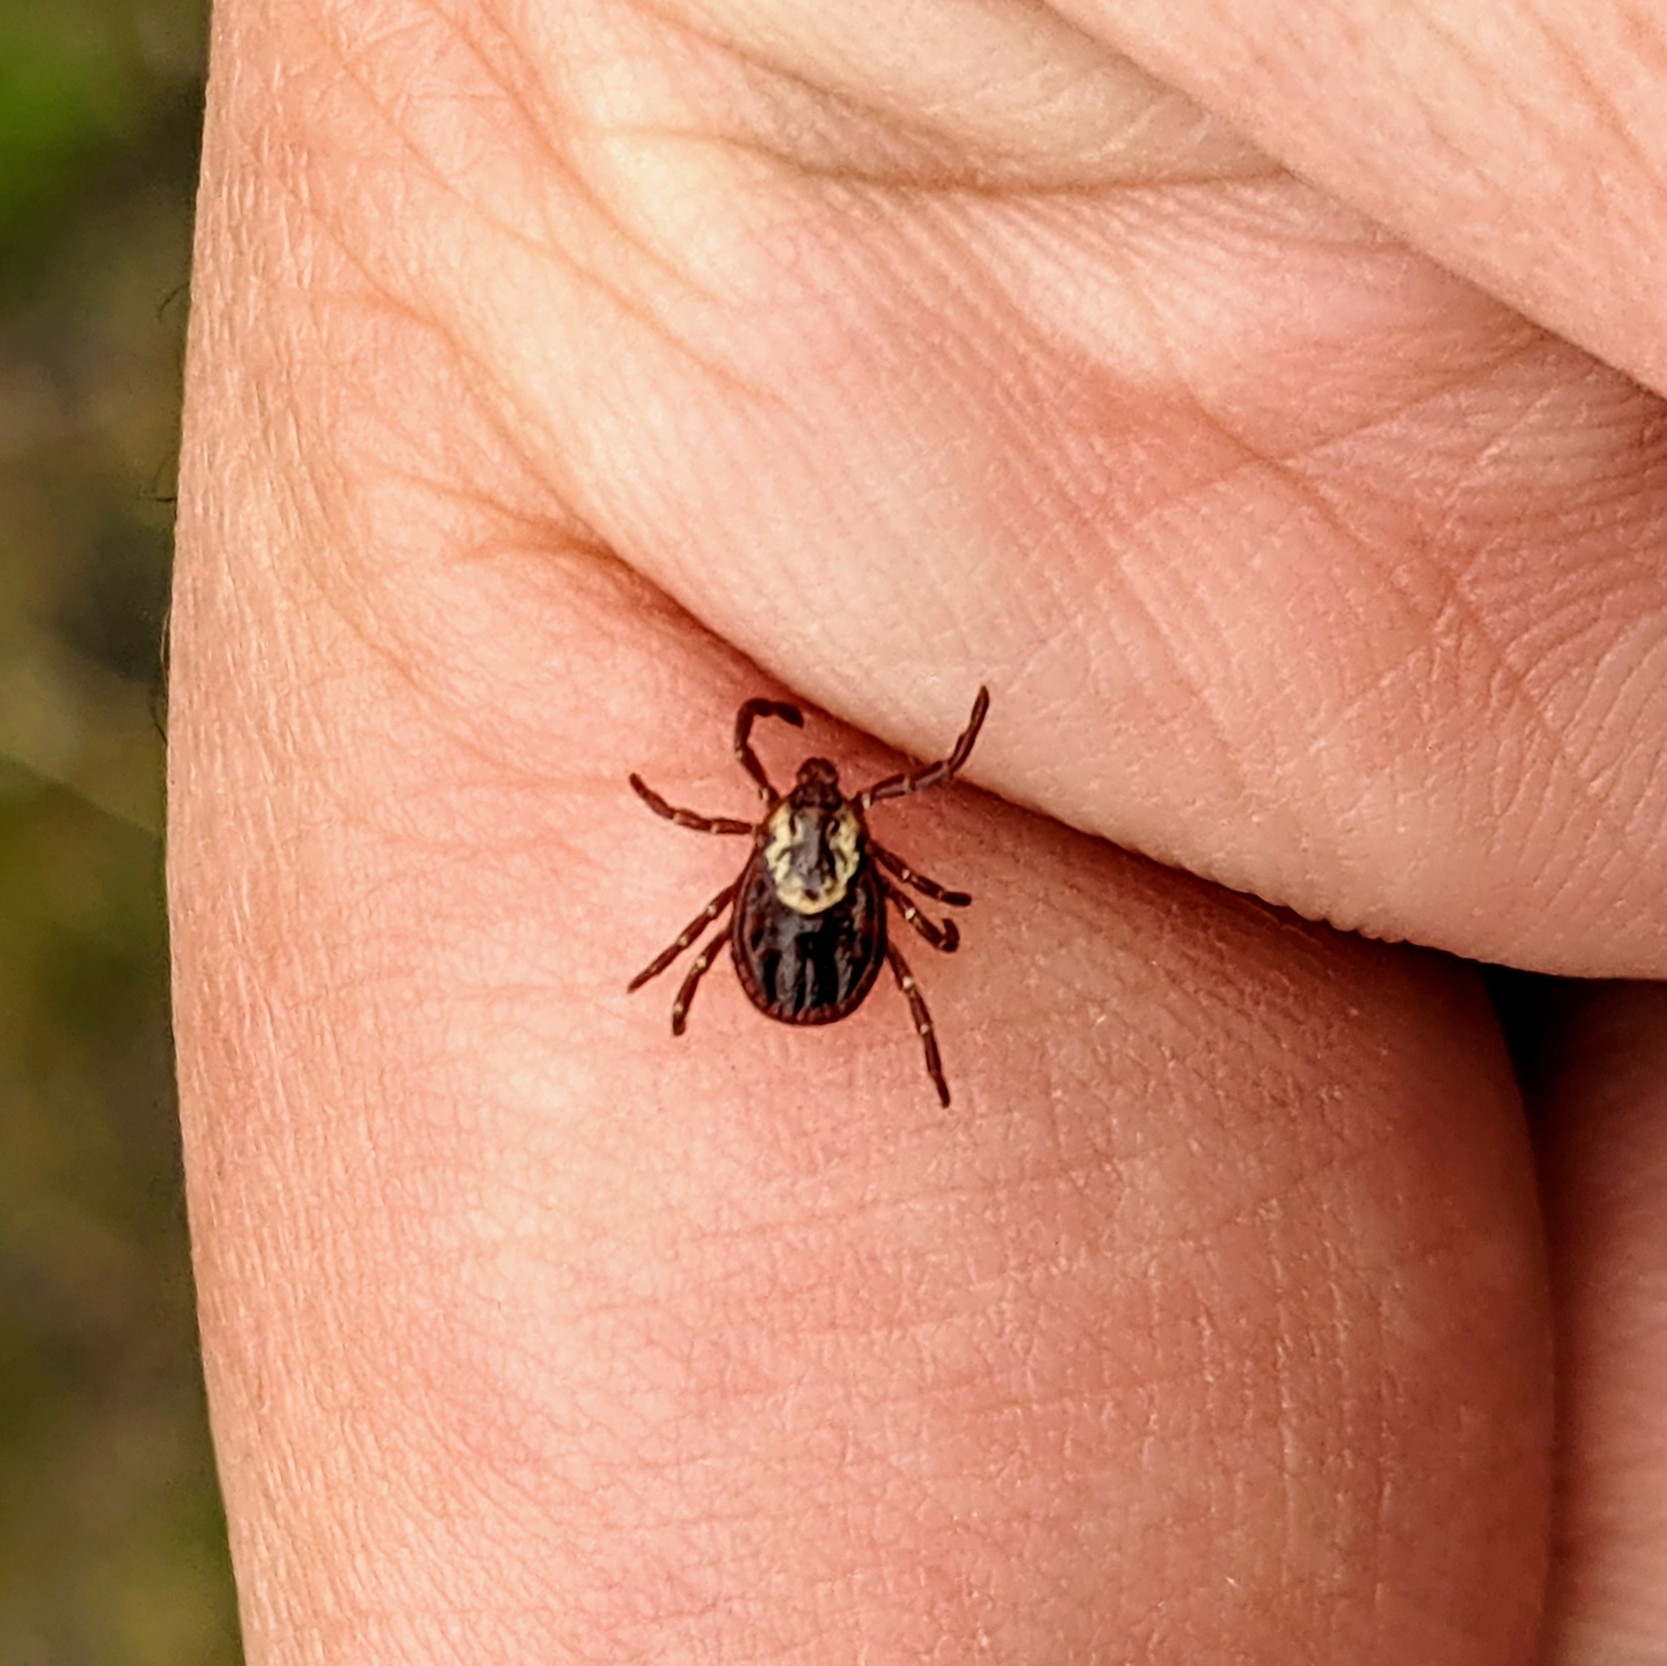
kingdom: Animalia
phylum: Arthropoda
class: Arachnida
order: Ixodida
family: Ixodidae
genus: Dermacentor
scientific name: Dermacentor variabilis
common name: American dog tick
